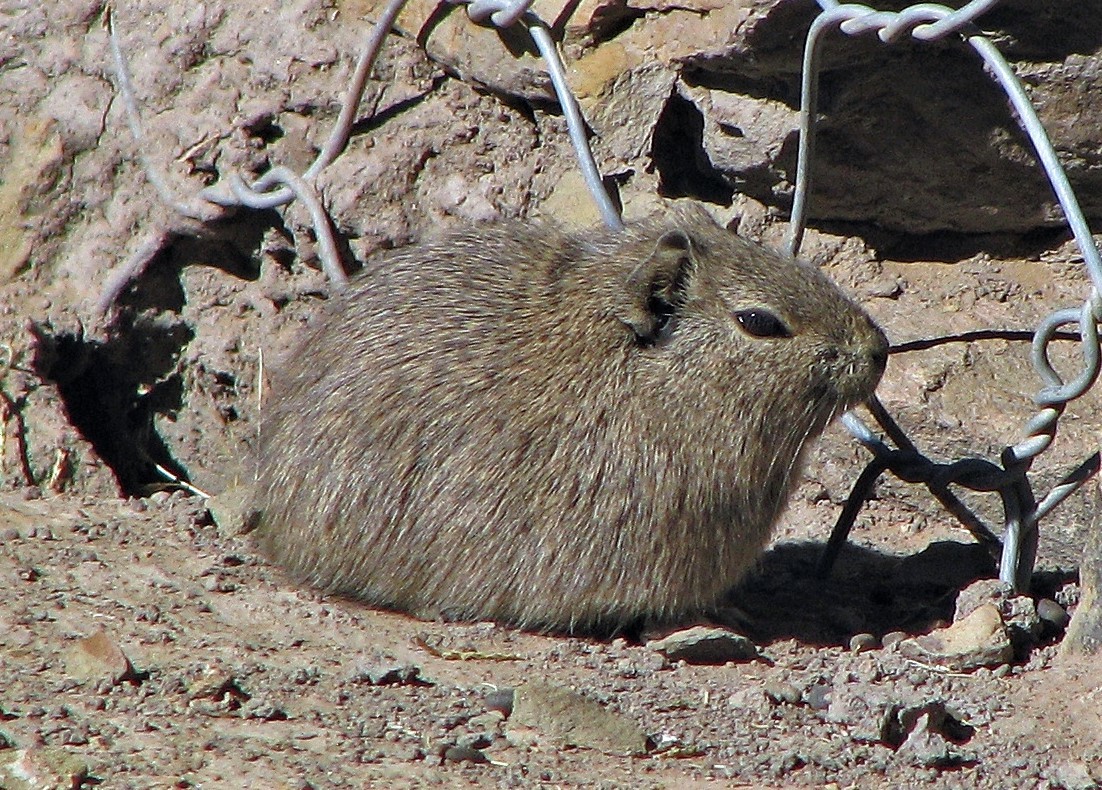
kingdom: Animalia
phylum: Chordata
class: Mammalia
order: Rodentia
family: Caviidae
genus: Galea
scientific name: Galea comes
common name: Southern highland yellow-toothed cavy
